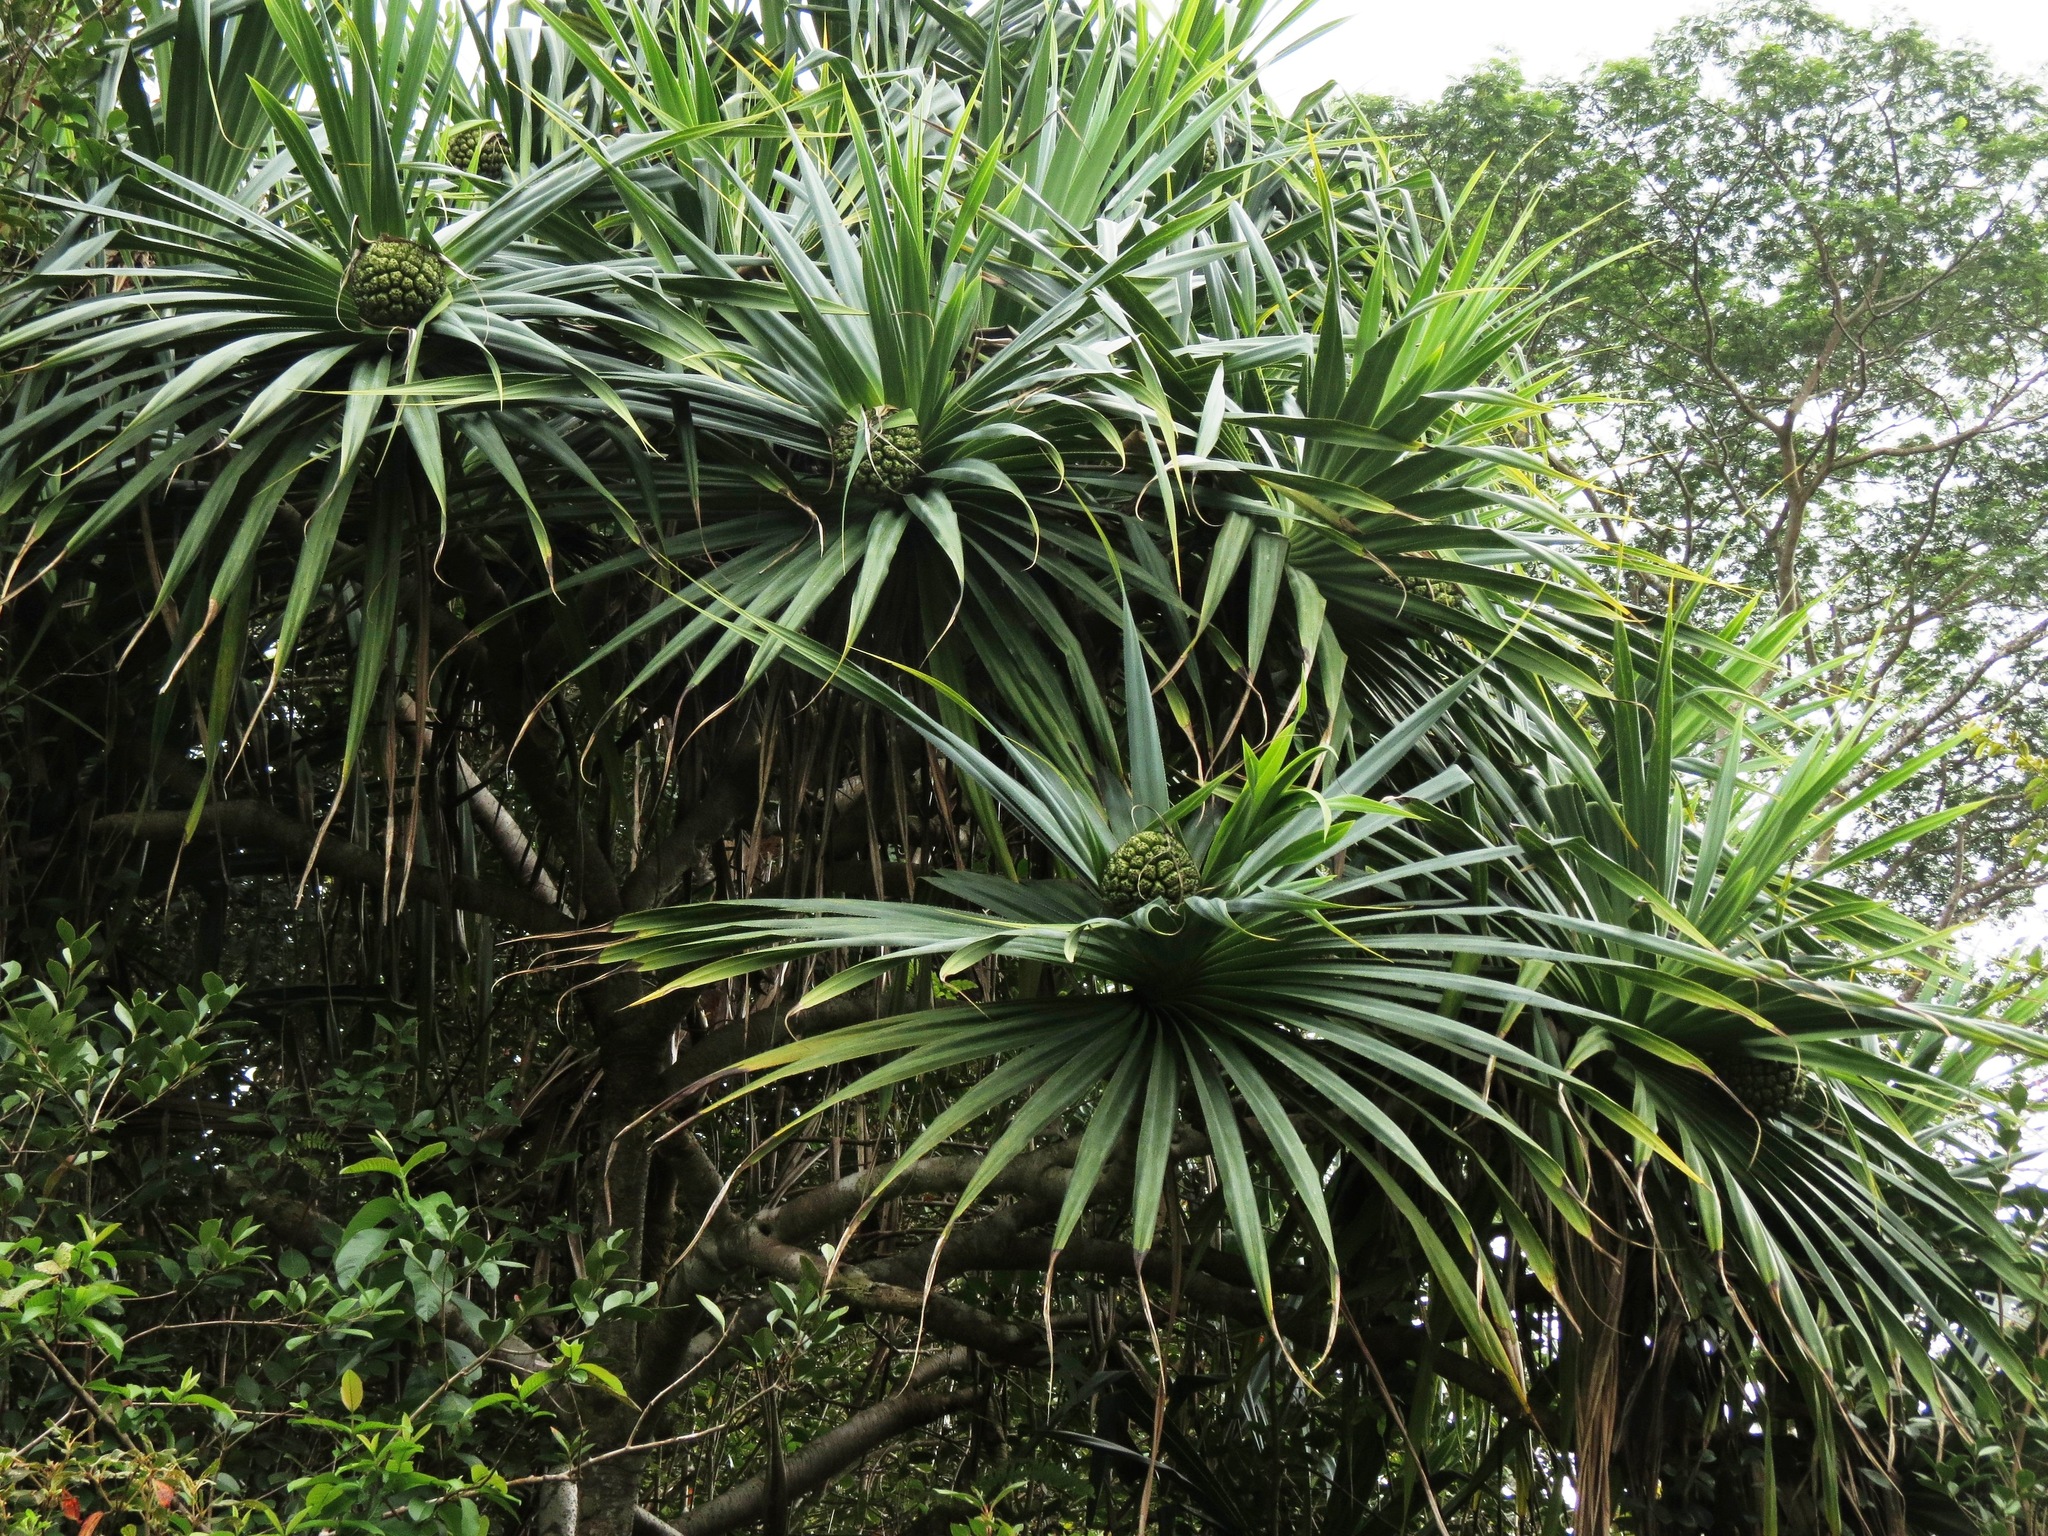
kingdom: Plantae
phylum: Tracheophyta
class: Liliopsida
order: Pandanales
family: Pandanaceae
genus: Pandanus
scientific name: Pandanus tectorius
